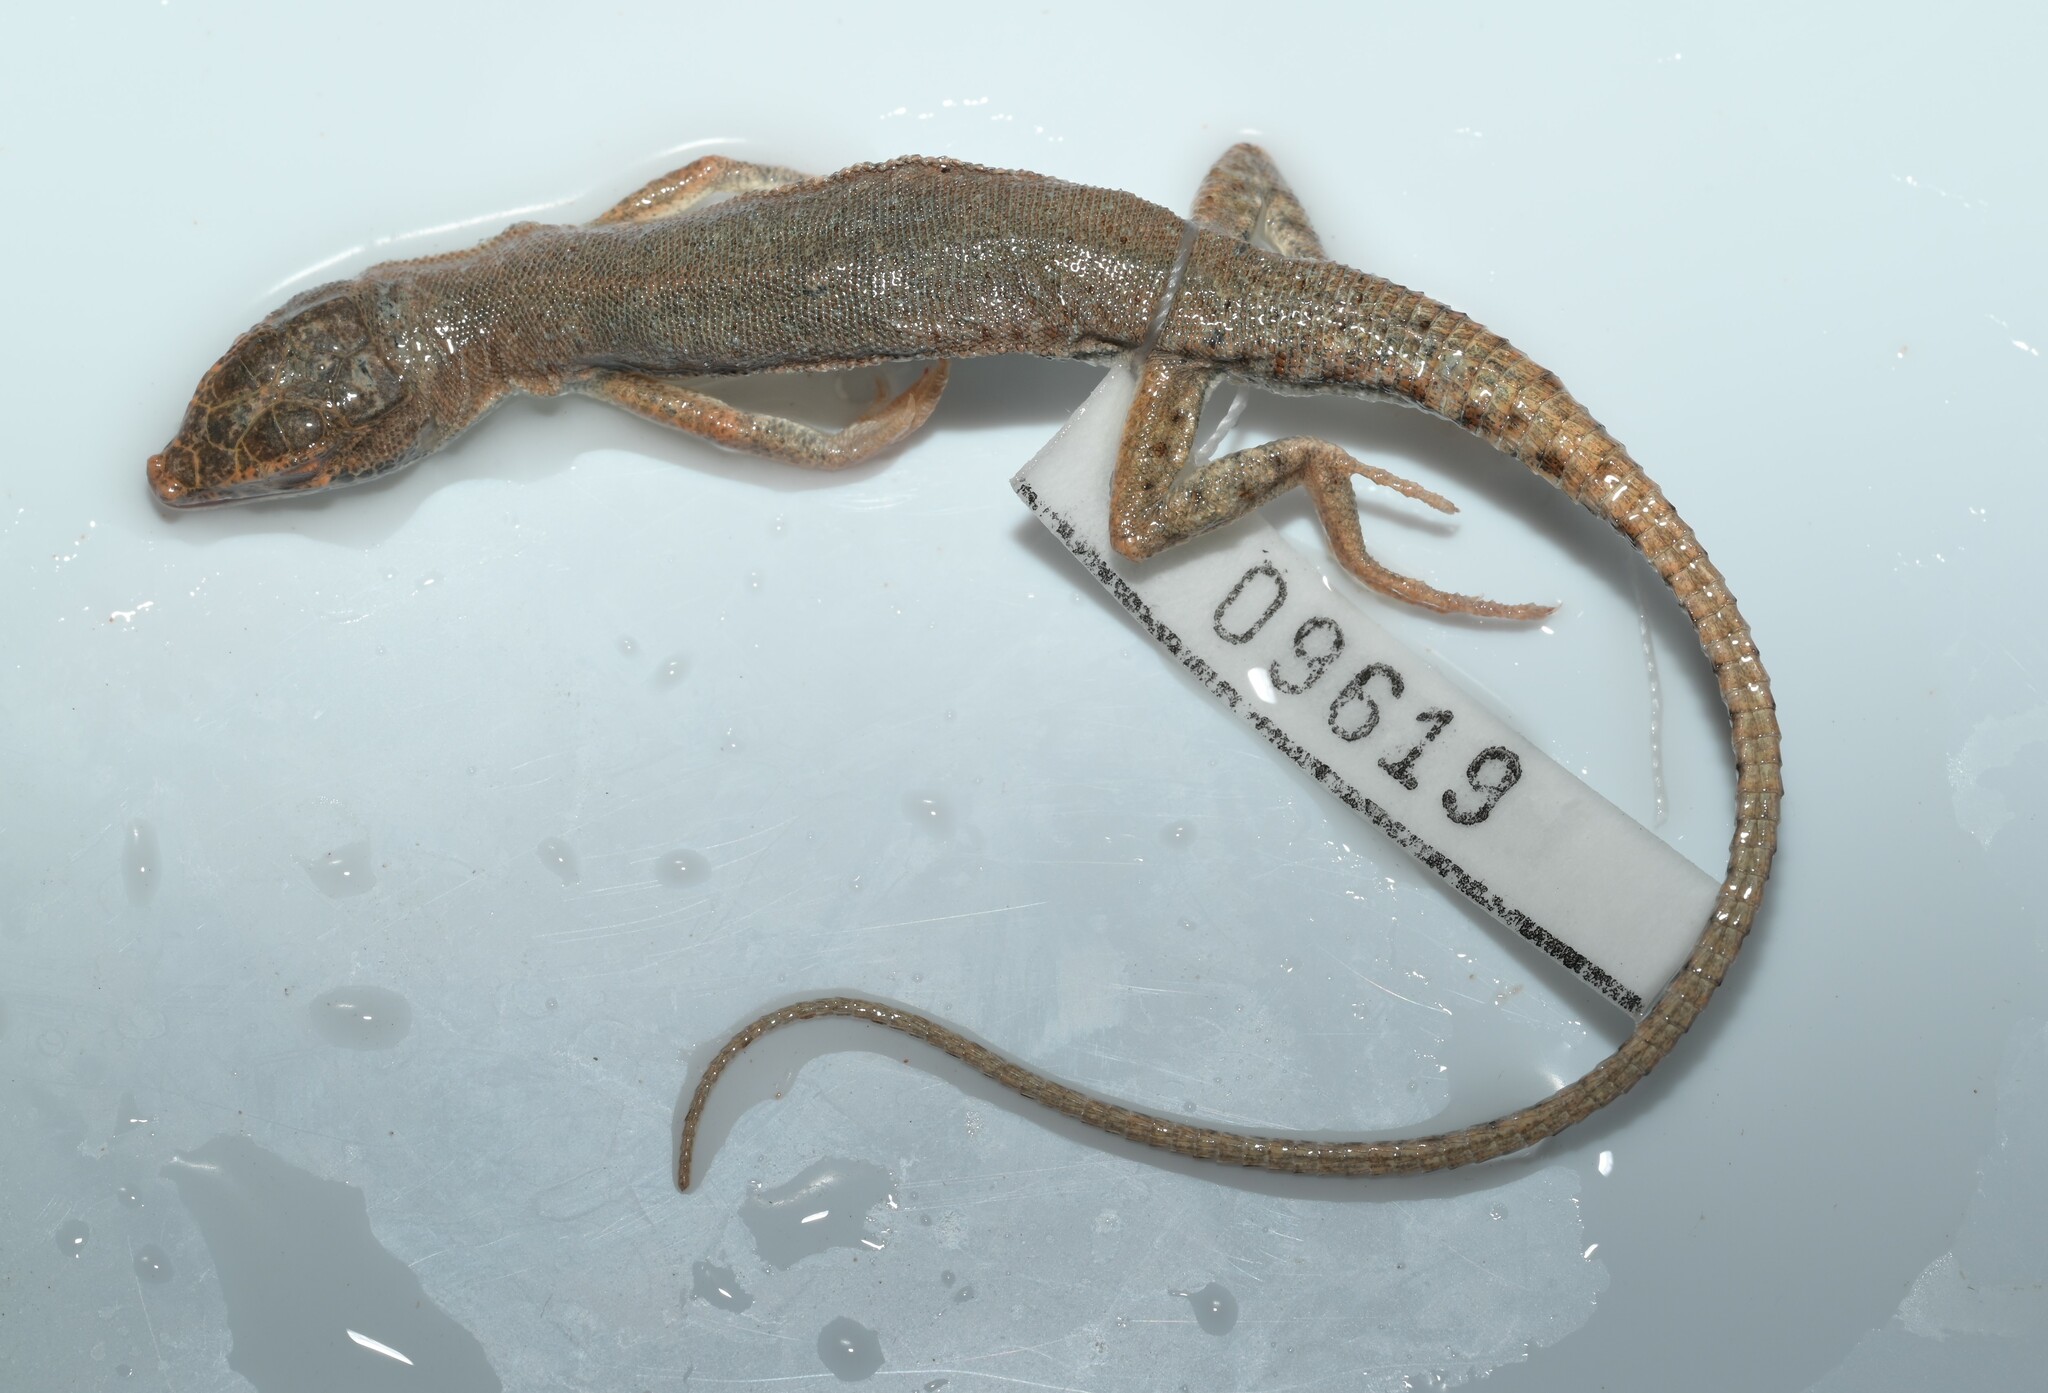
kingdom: Animalia
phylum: Chordata
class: Squamata
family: Lacertidae
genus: Mesalina
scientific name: Mesalina brevirostris
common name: Blanford's short-nosed desert lizard
